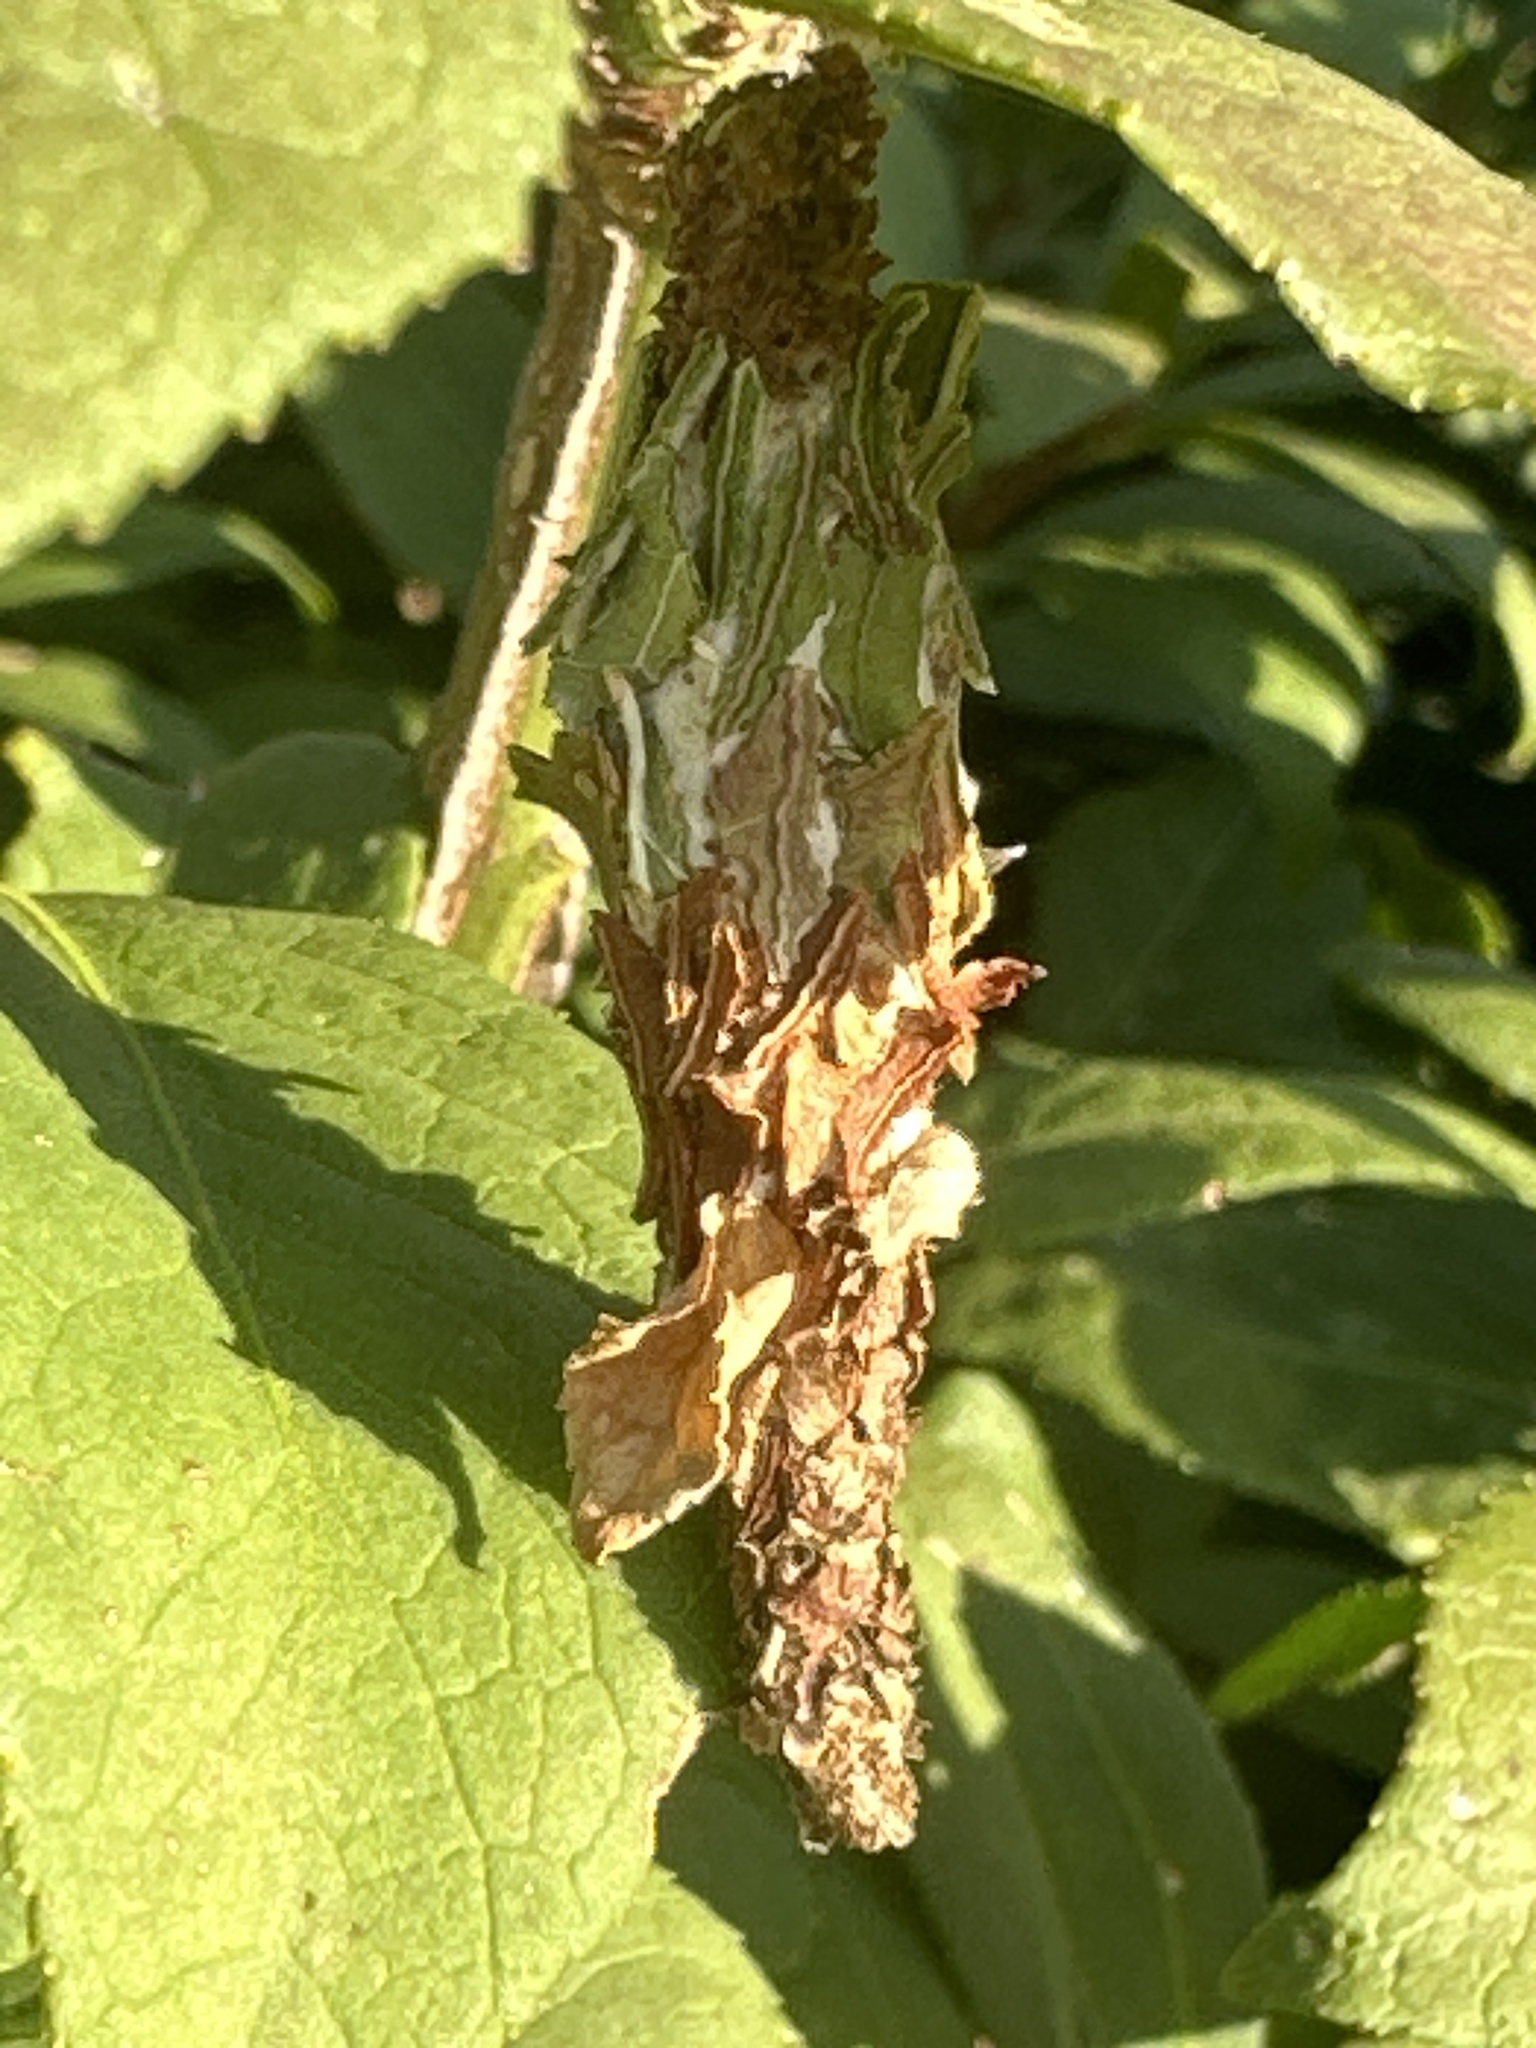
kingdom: Animalia
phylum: Arthropoda
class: Insecta
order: Lepidoptera
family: Psychidae
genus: Thyridopteryx
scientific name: Thyridopteryx ephemeraeformis
